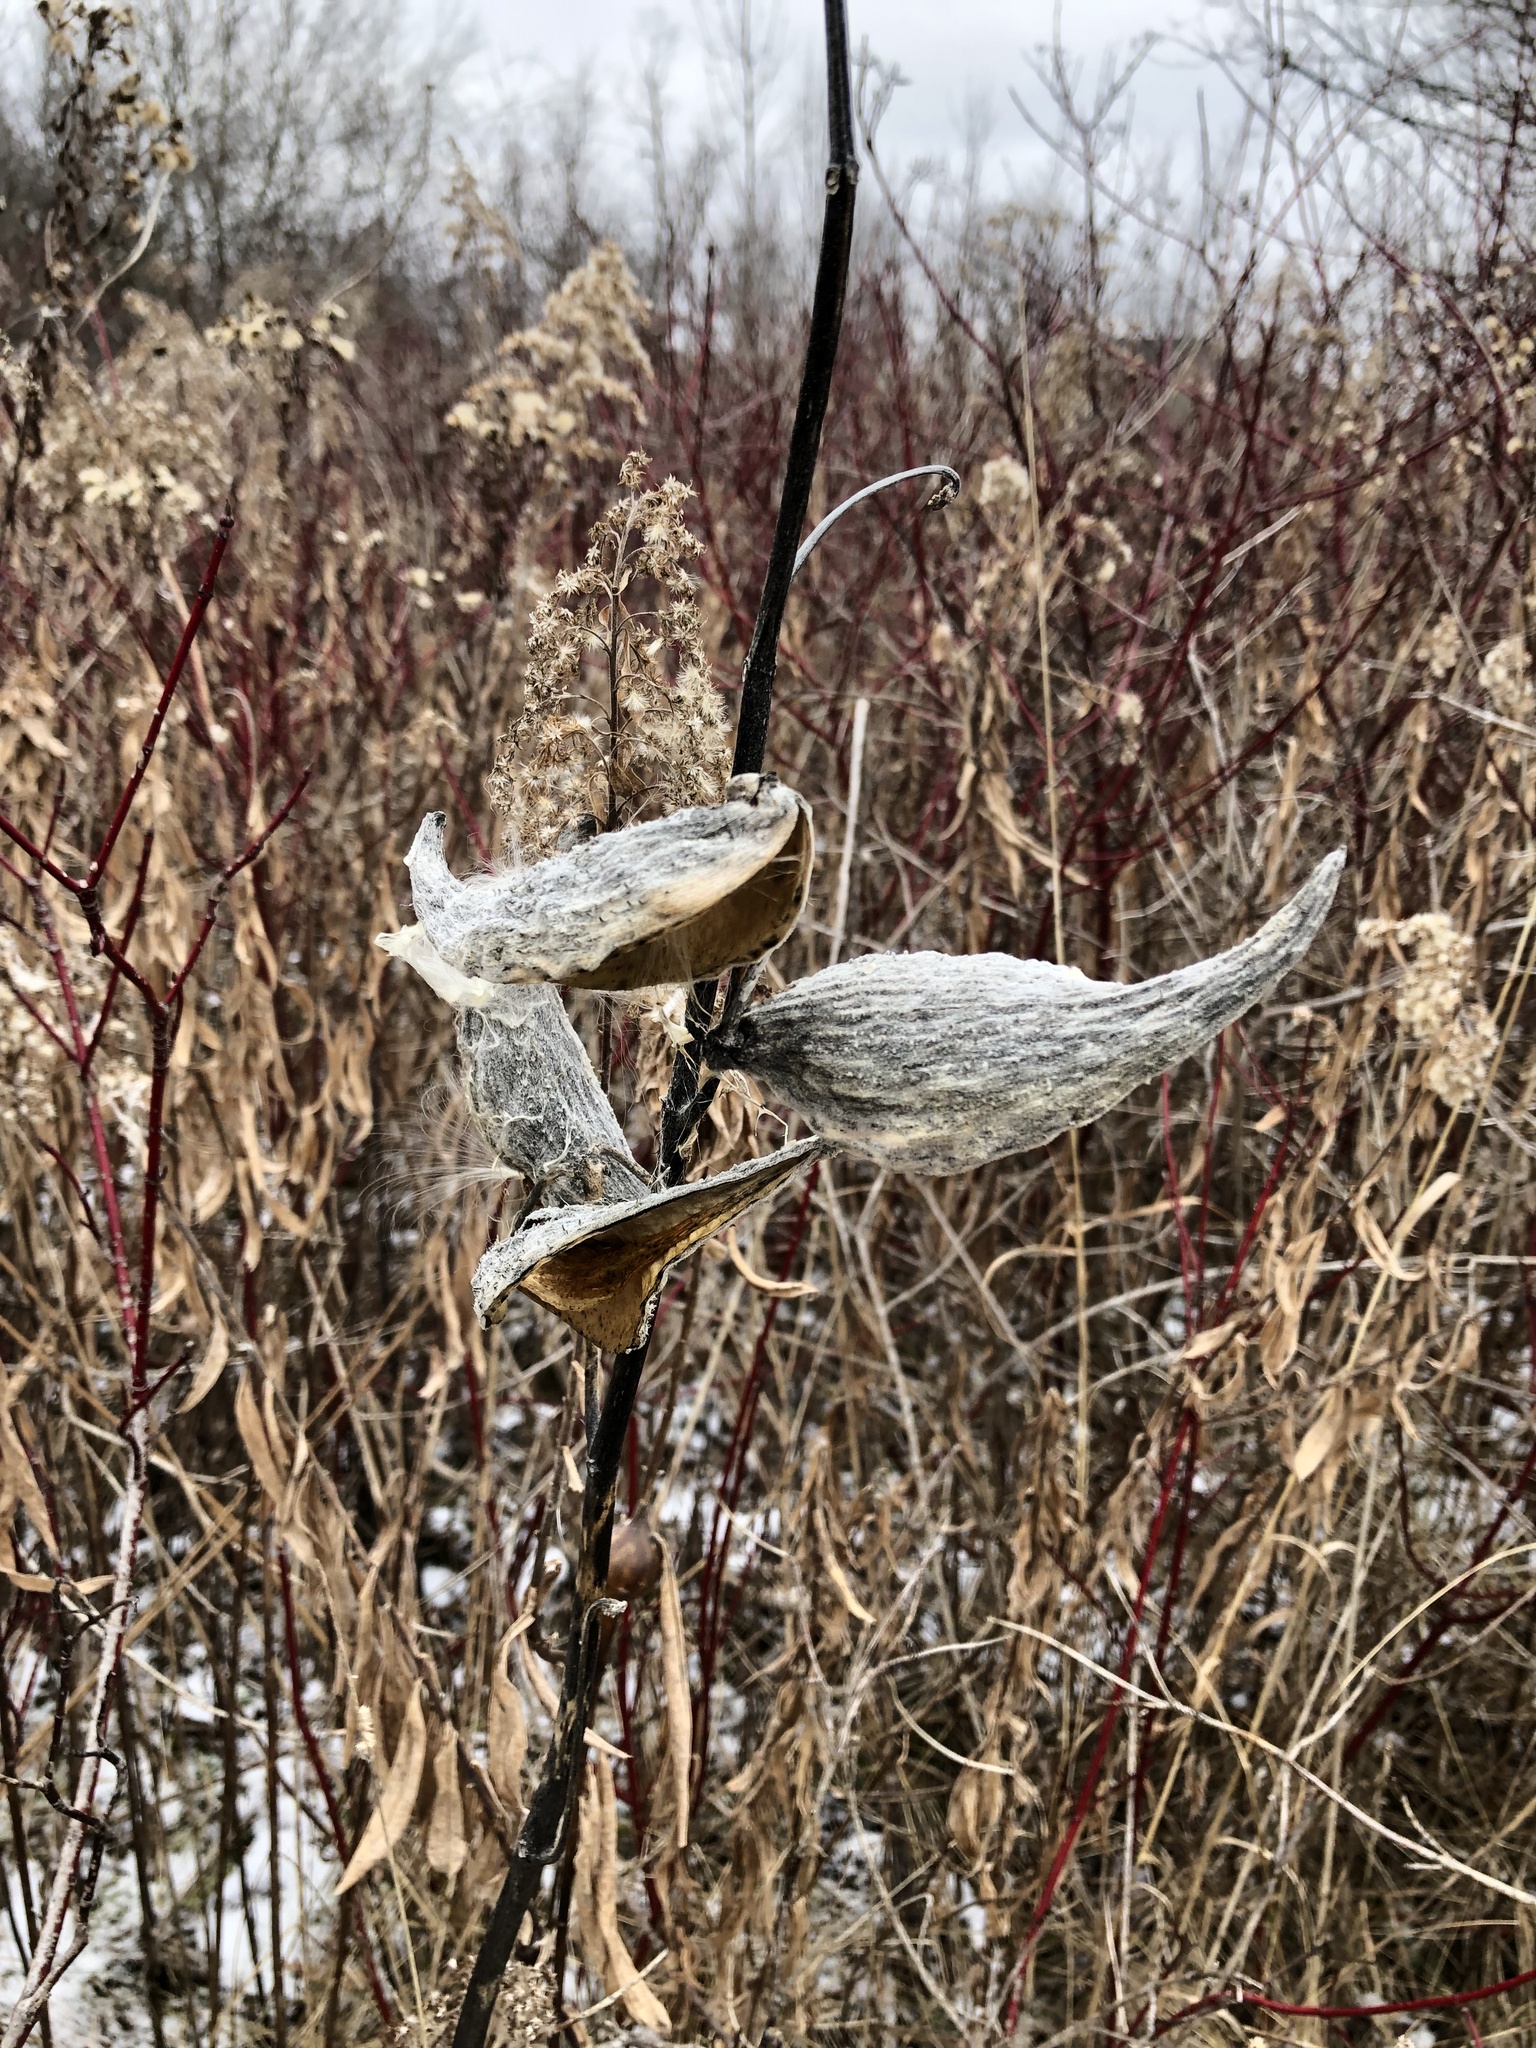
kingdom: Plantae
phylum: Tracheophyta
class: Magnoliopsida
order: Gentianales
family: Apocynaceae
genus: Asclepias
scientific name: Asclepias syriaca
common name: Common milkweed
